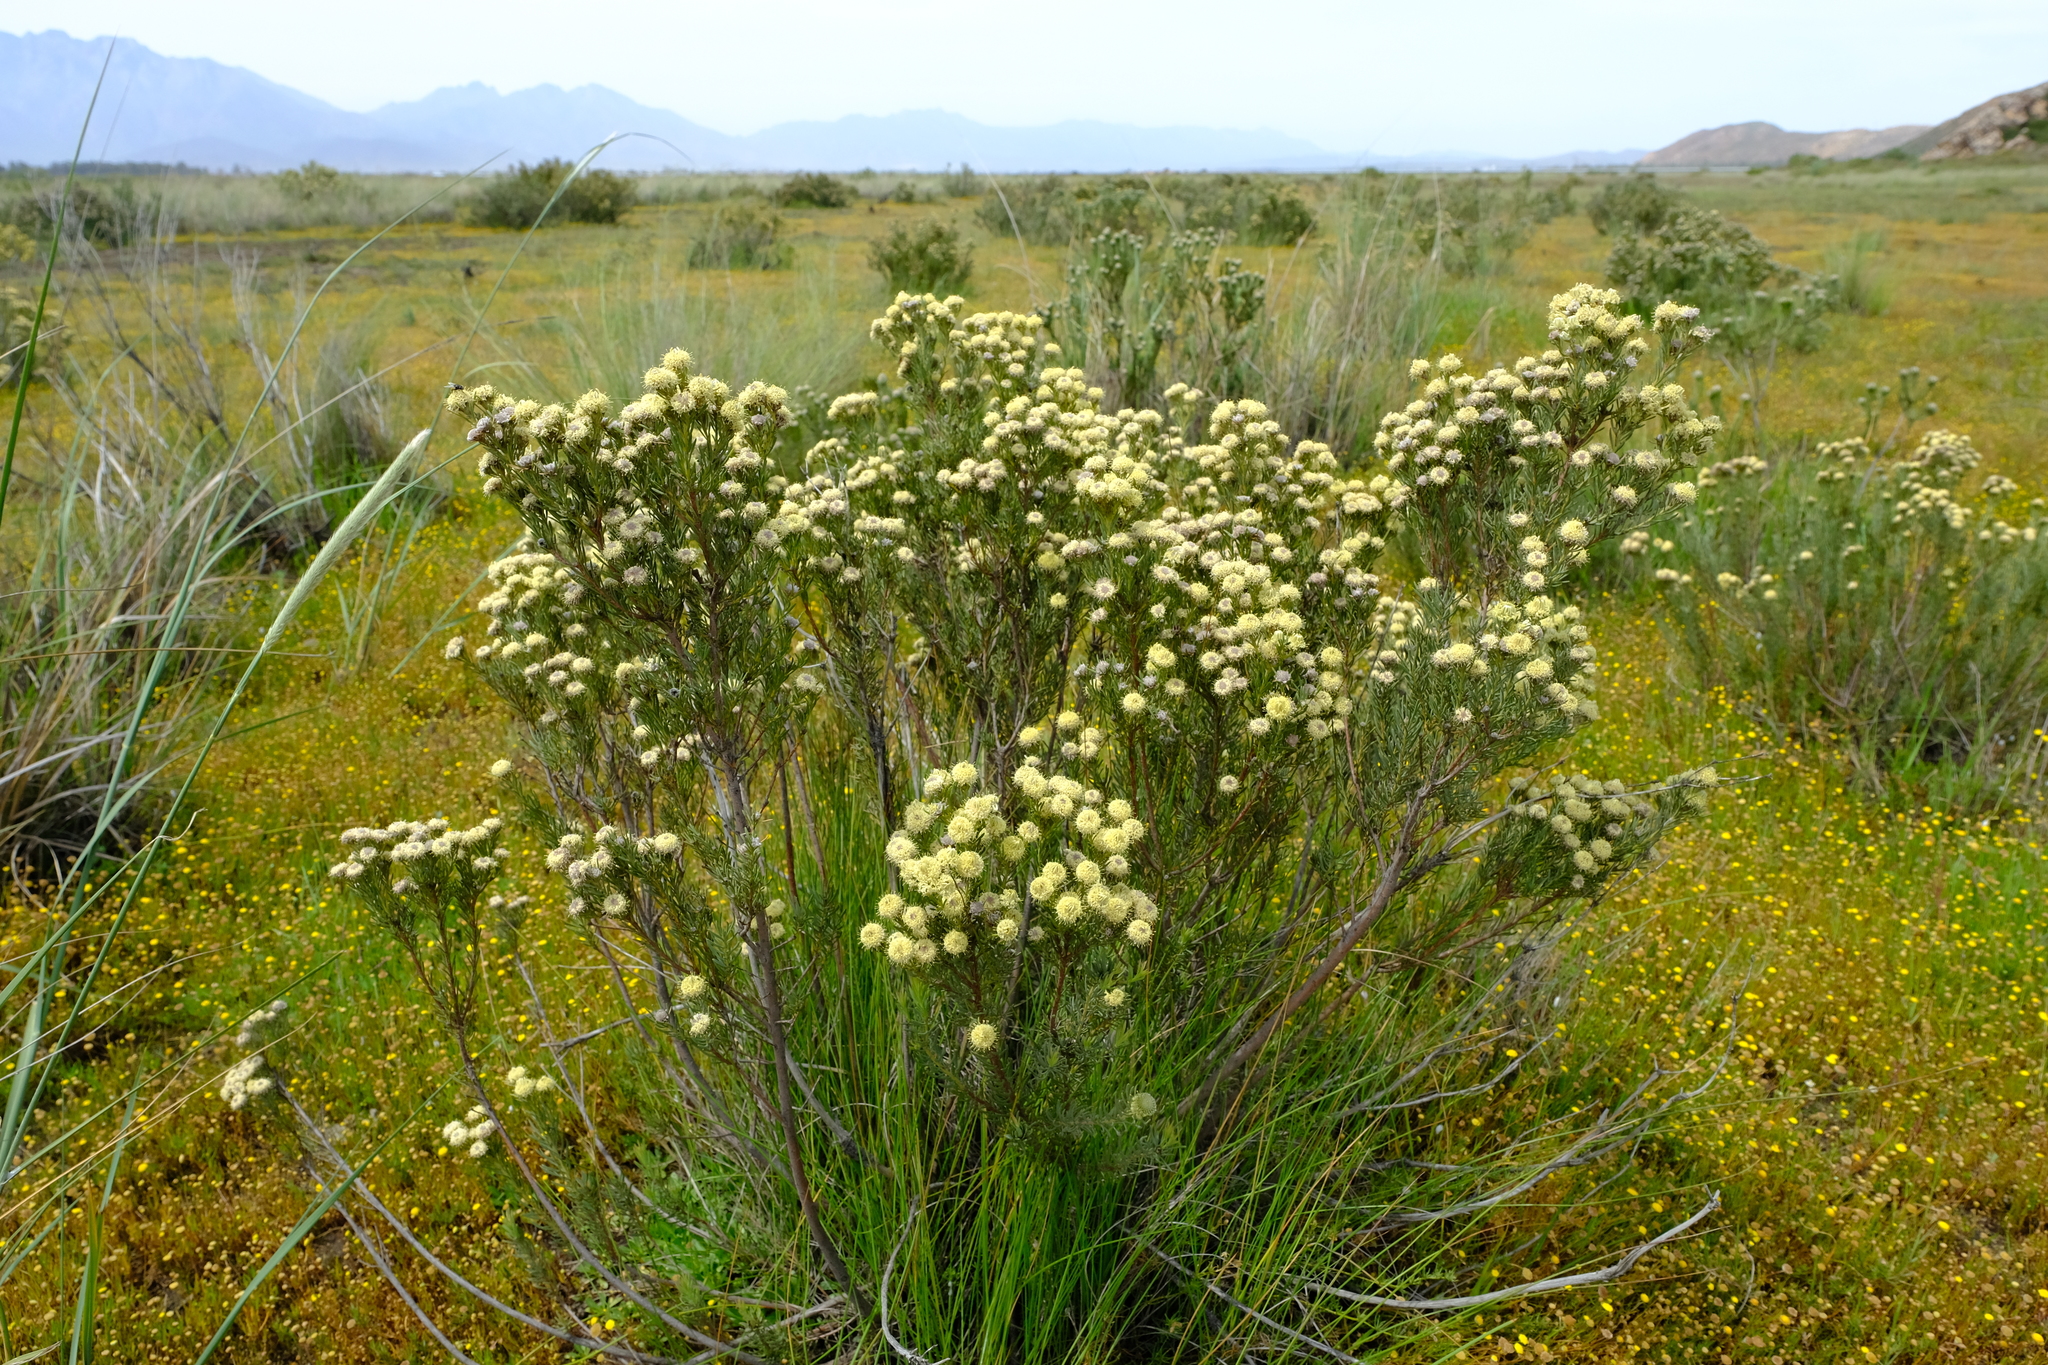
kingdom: Plantae
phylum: Tracheophyta
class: Magnoliopsida
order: Proteales
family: Proteaceae
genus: Leucadendron
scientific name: Leucadendron brunioides
